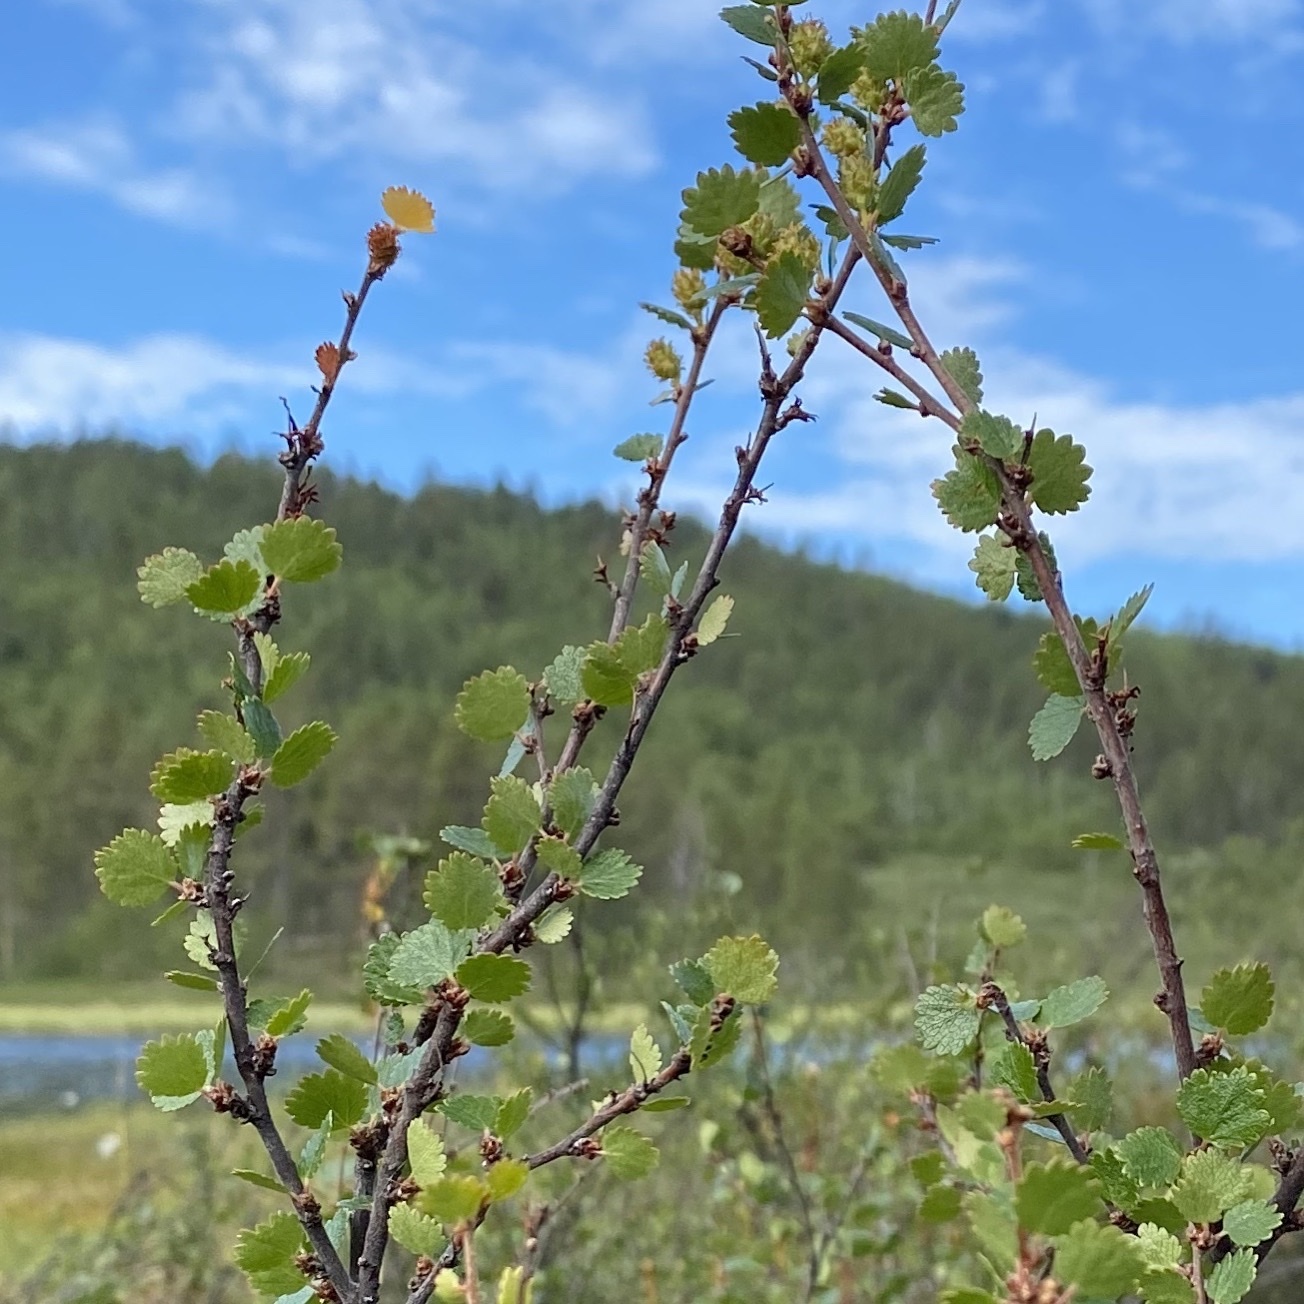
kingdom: Plantae
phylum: Tracheophyta
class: Magnoliopsida
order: Fagales
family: Betulaceae
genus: Betula
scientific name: Betula nana
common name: Arctic dwarf birch
